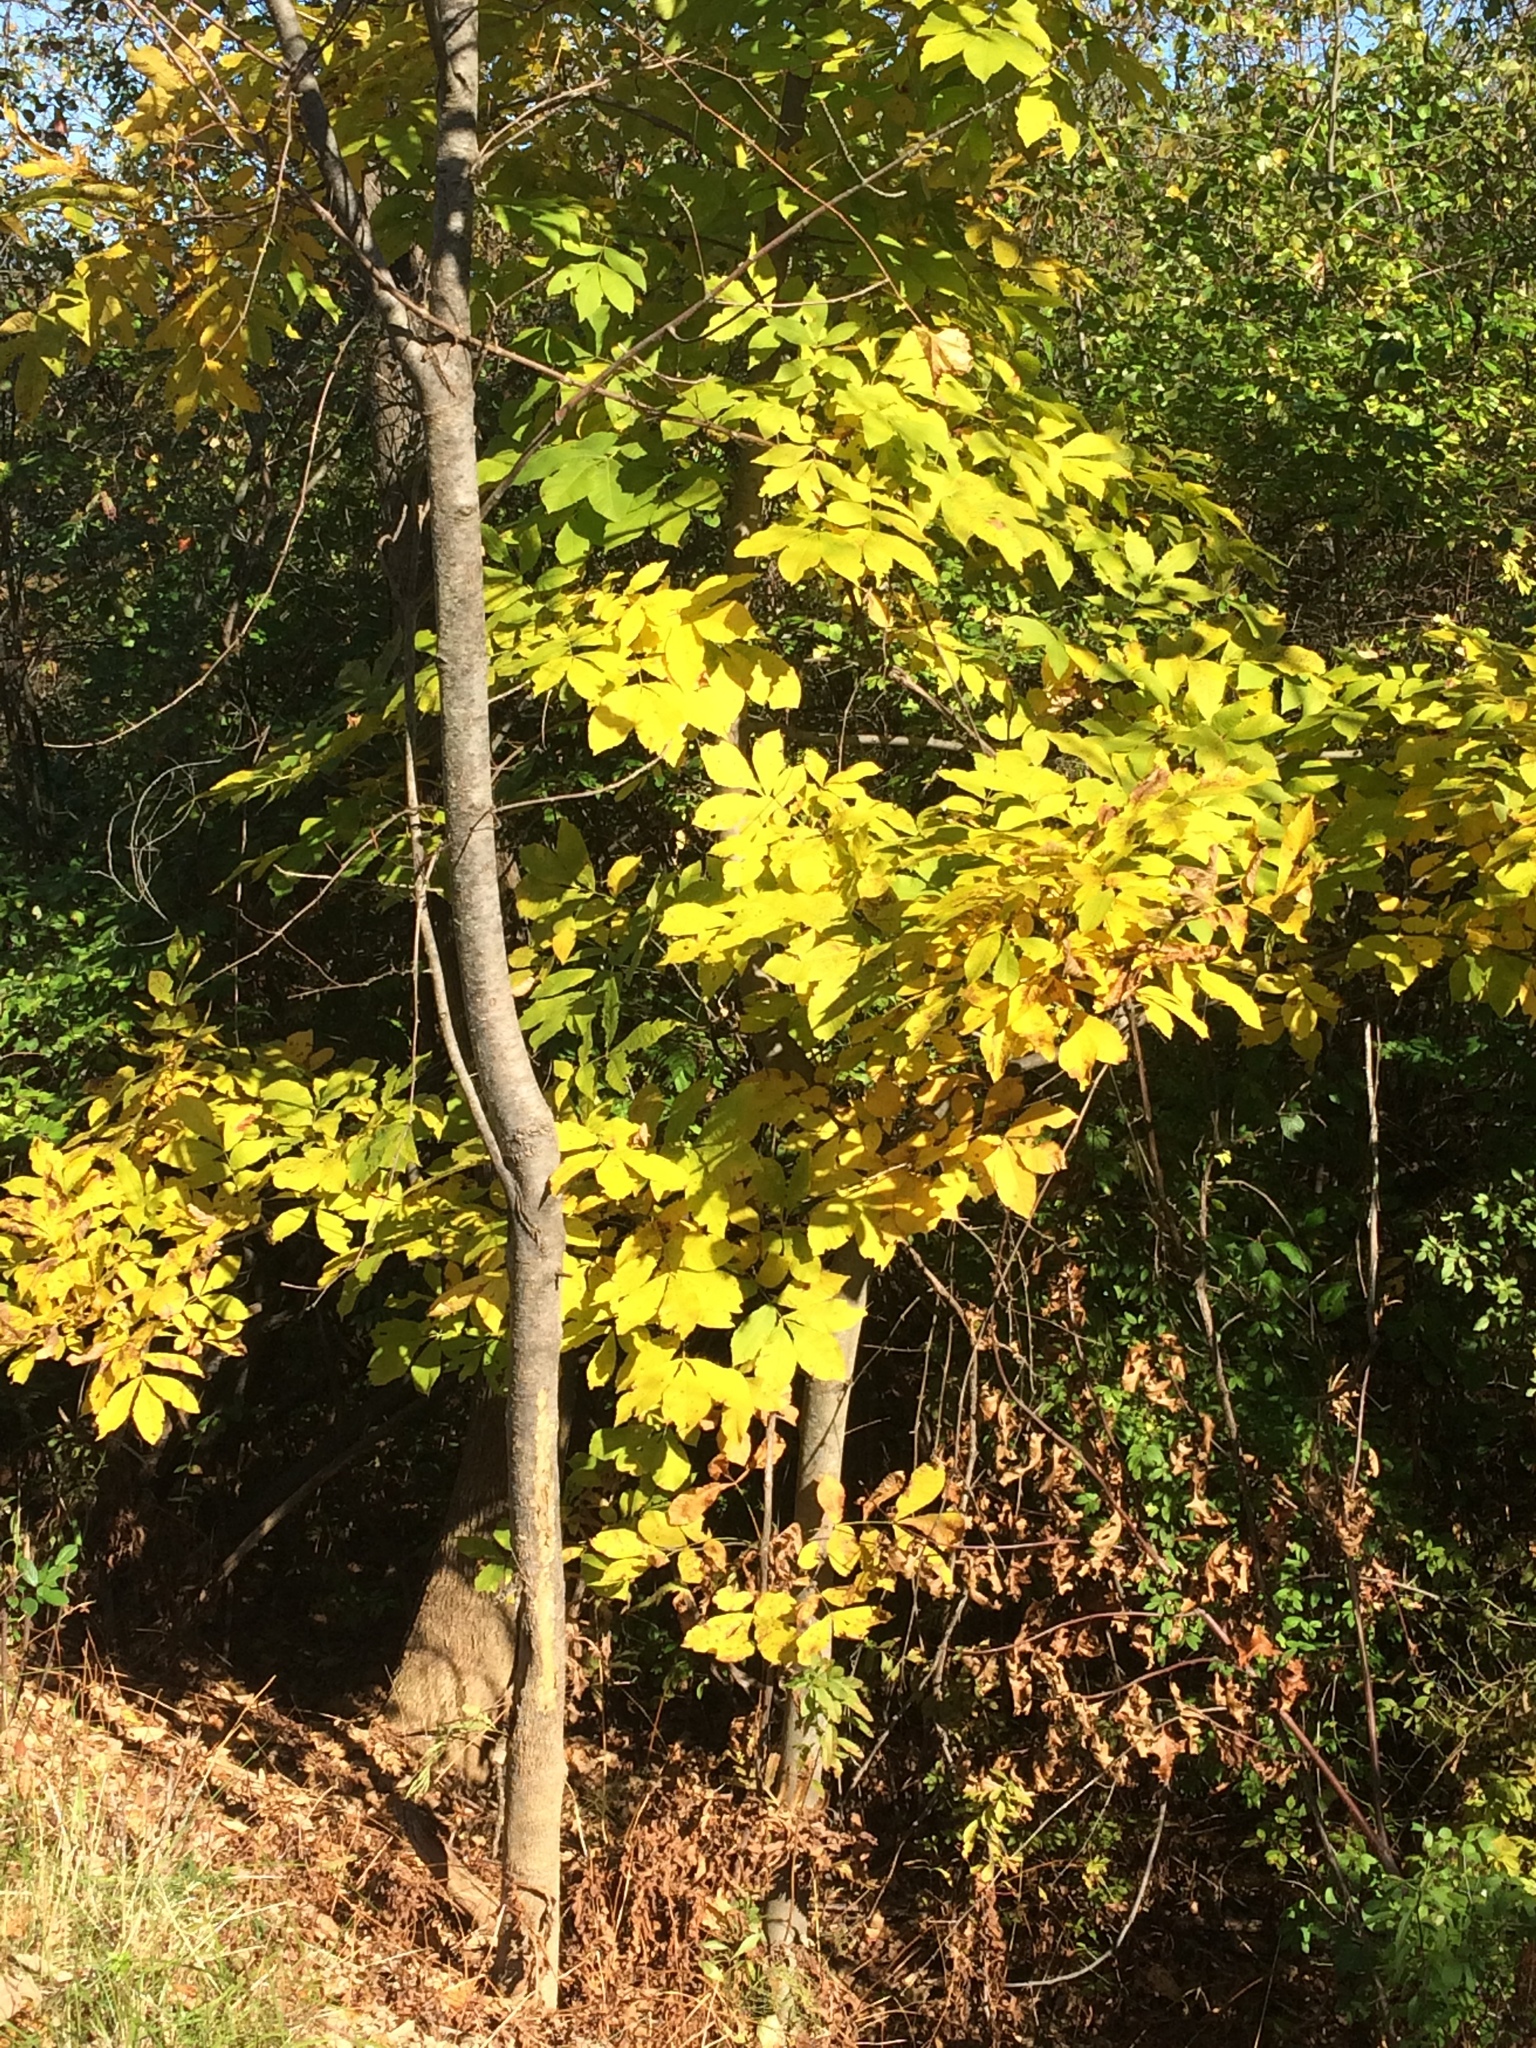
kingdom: Plantae
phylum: Tracheophyta
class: Magnoliopsida
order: Fagales
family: Juglandaceae
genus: Carya
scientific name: Carya cordiformis
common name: Bitternut hickory
